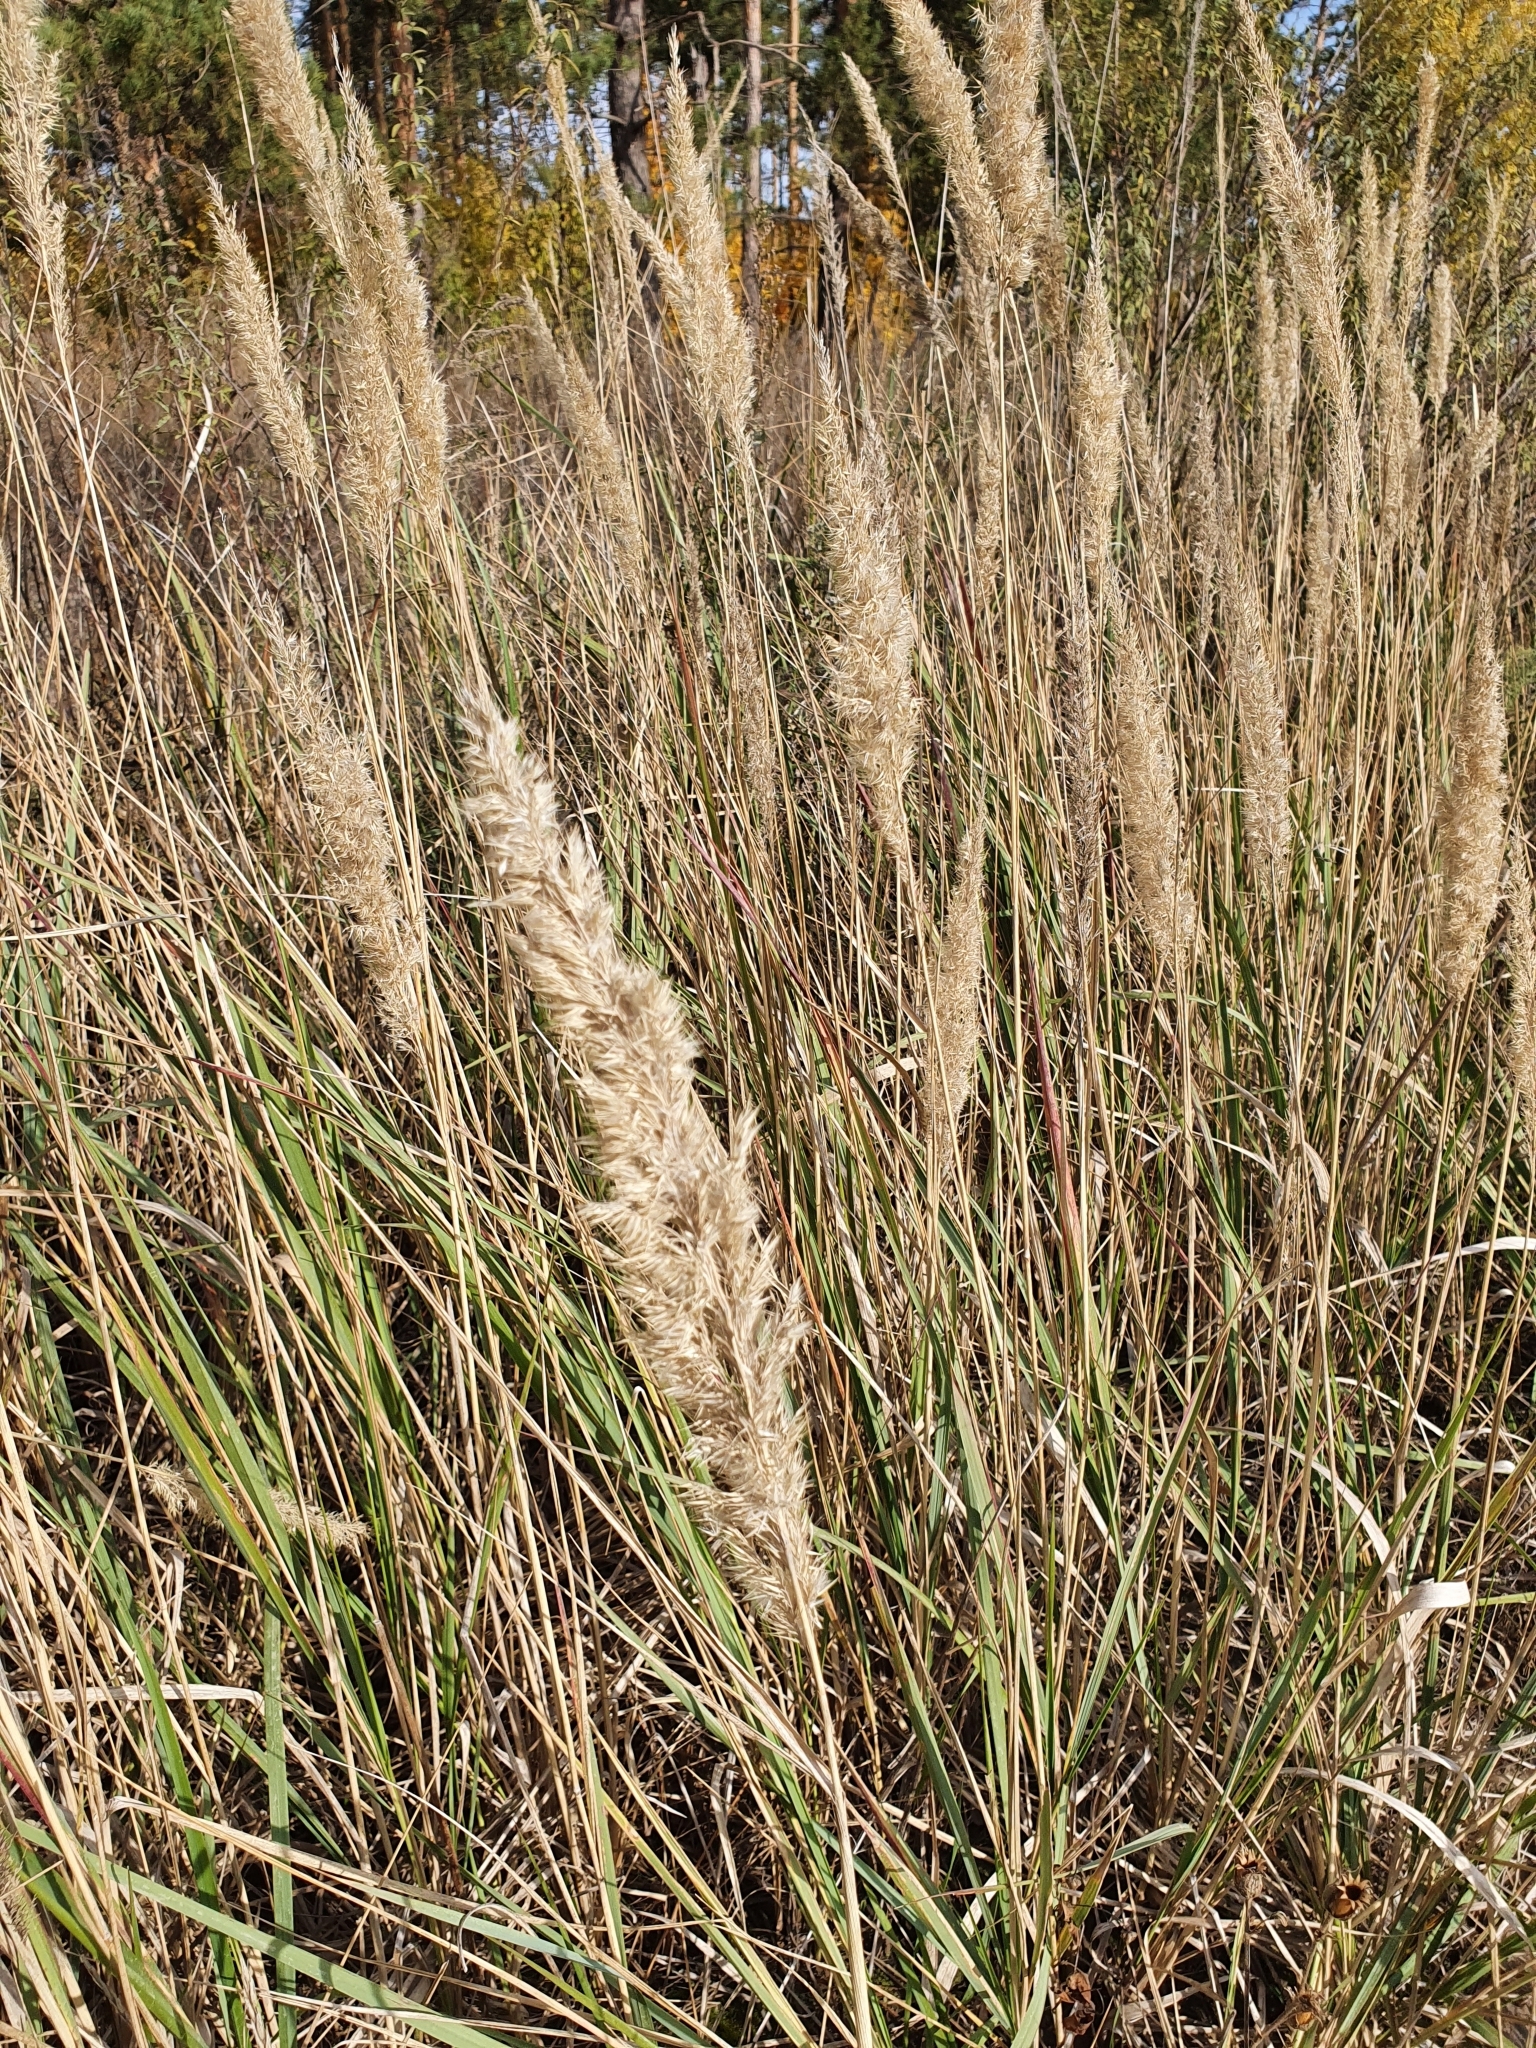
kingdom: Plantae
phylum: Tracheophyta
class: Liliopsida
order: Poales
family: Poaceae
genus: Calamagrostis
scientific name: Calamagrostis epigejos
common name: Wood small-reed
